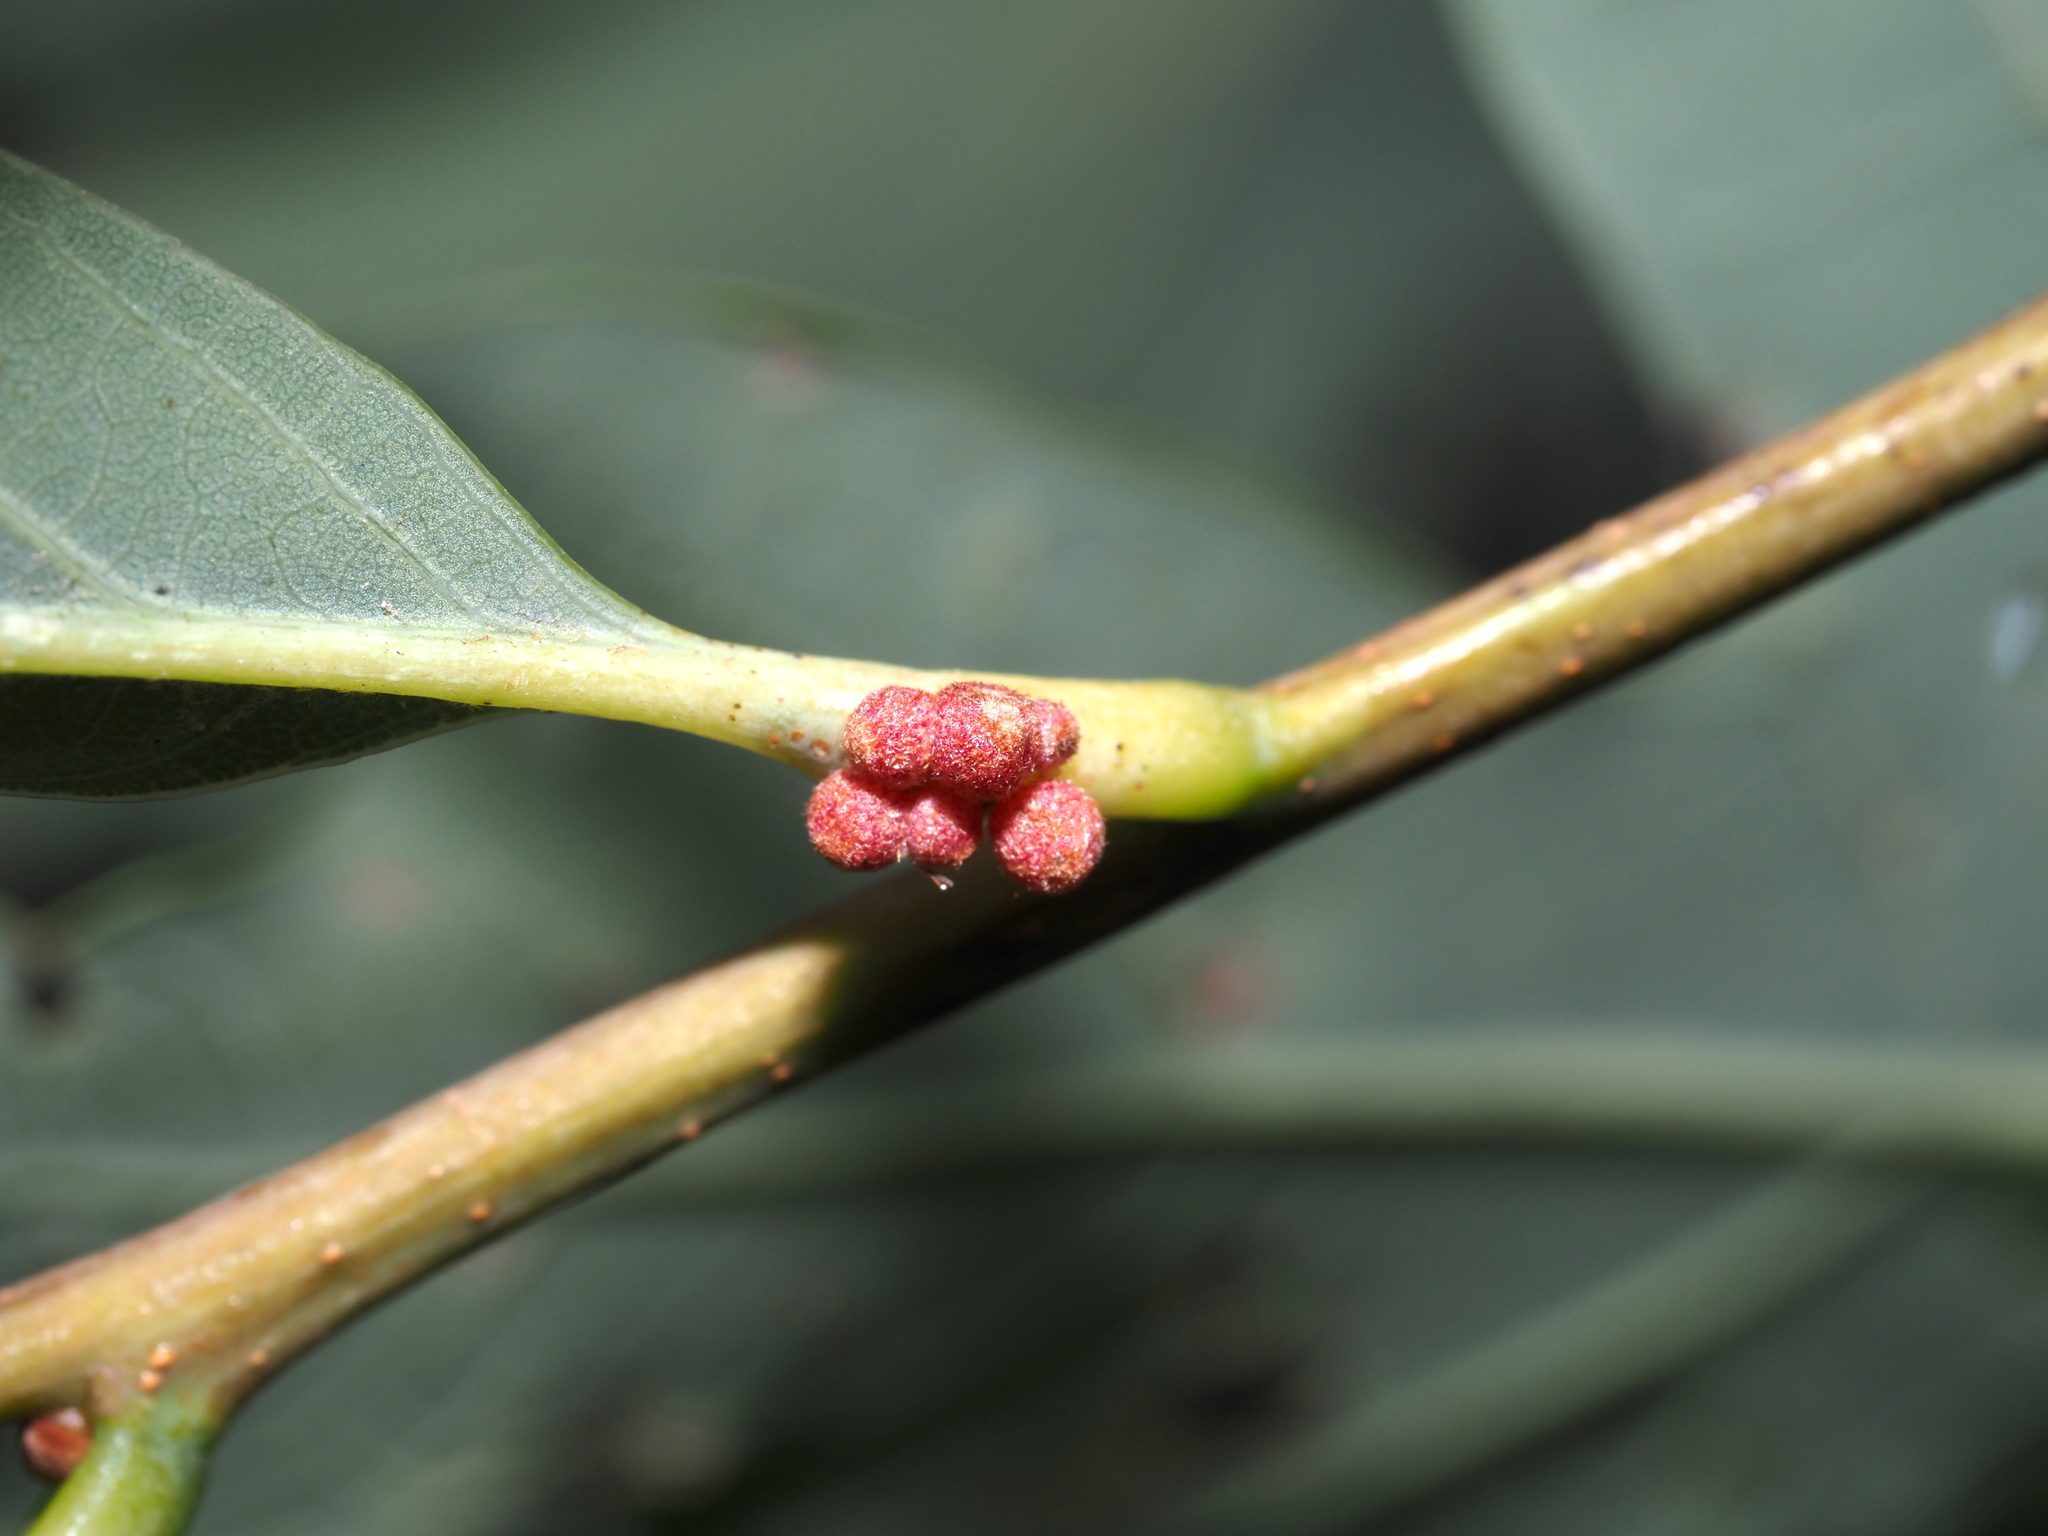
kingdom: Animalia
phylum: Arthropoda
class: Insecta
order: Hymenoptera
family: Cynipidae
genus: Andricus
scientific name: Andricus
